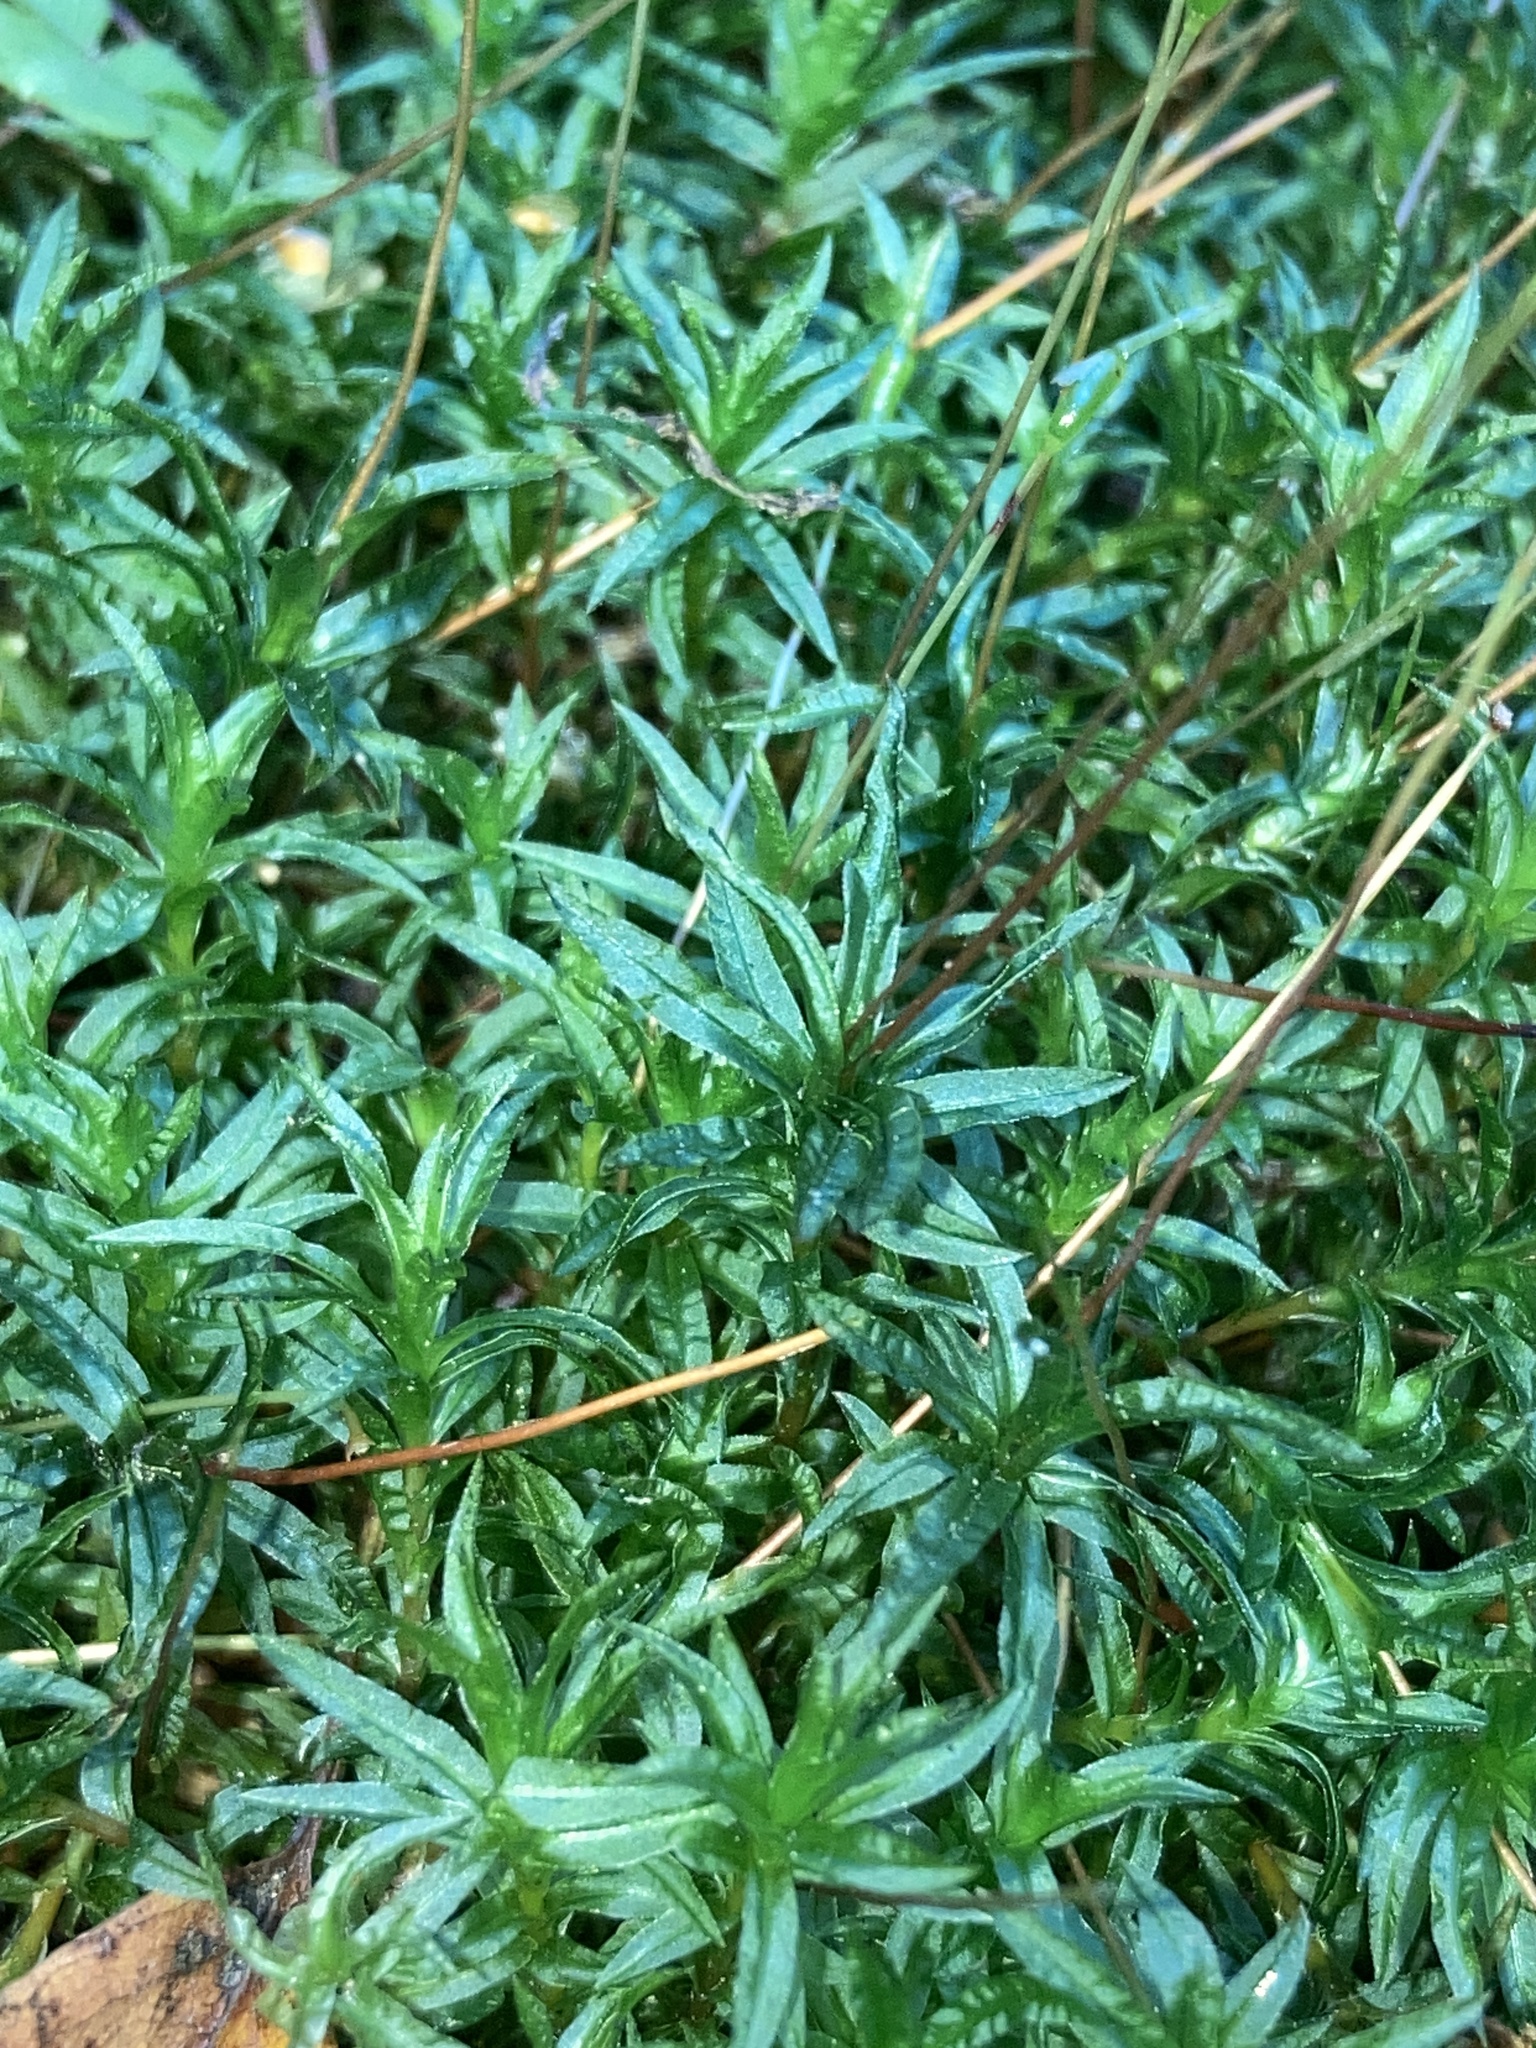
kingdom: Plantae
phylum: Bryophyta
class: Polytrichopsida
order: Polytrichales
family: Polytrichaceae
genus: Atrichum
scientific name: Atrichum undulatum
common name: Common smoothcap
